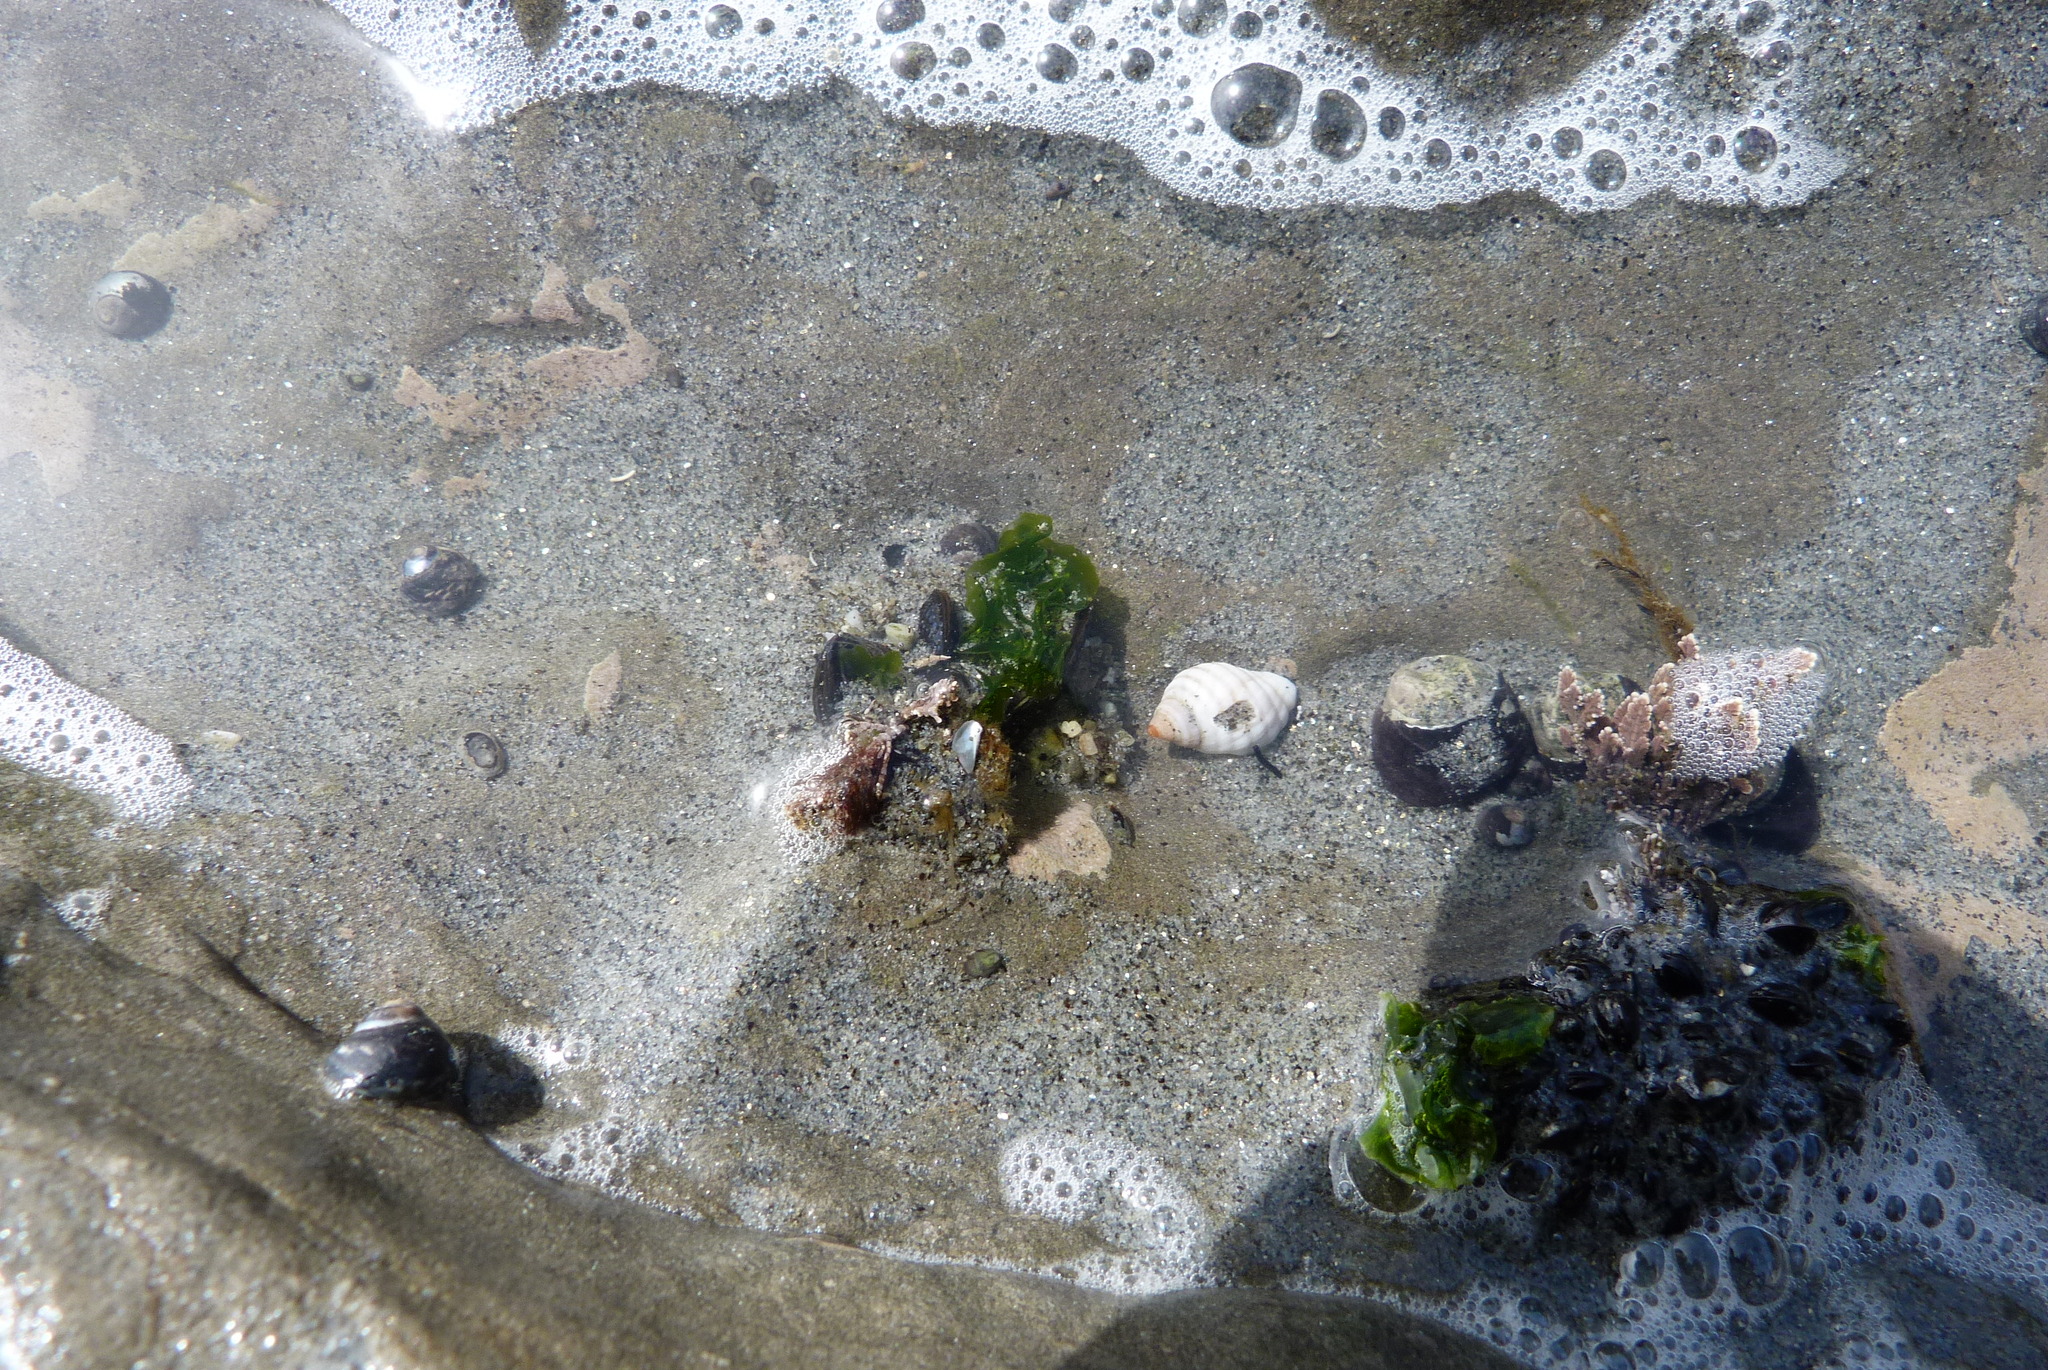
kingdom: Animalia
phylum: Mollusca
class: Gastropoda
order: Neogastropoda
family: Muricidae
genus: Paratrophon
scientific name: Paratrophon patens
